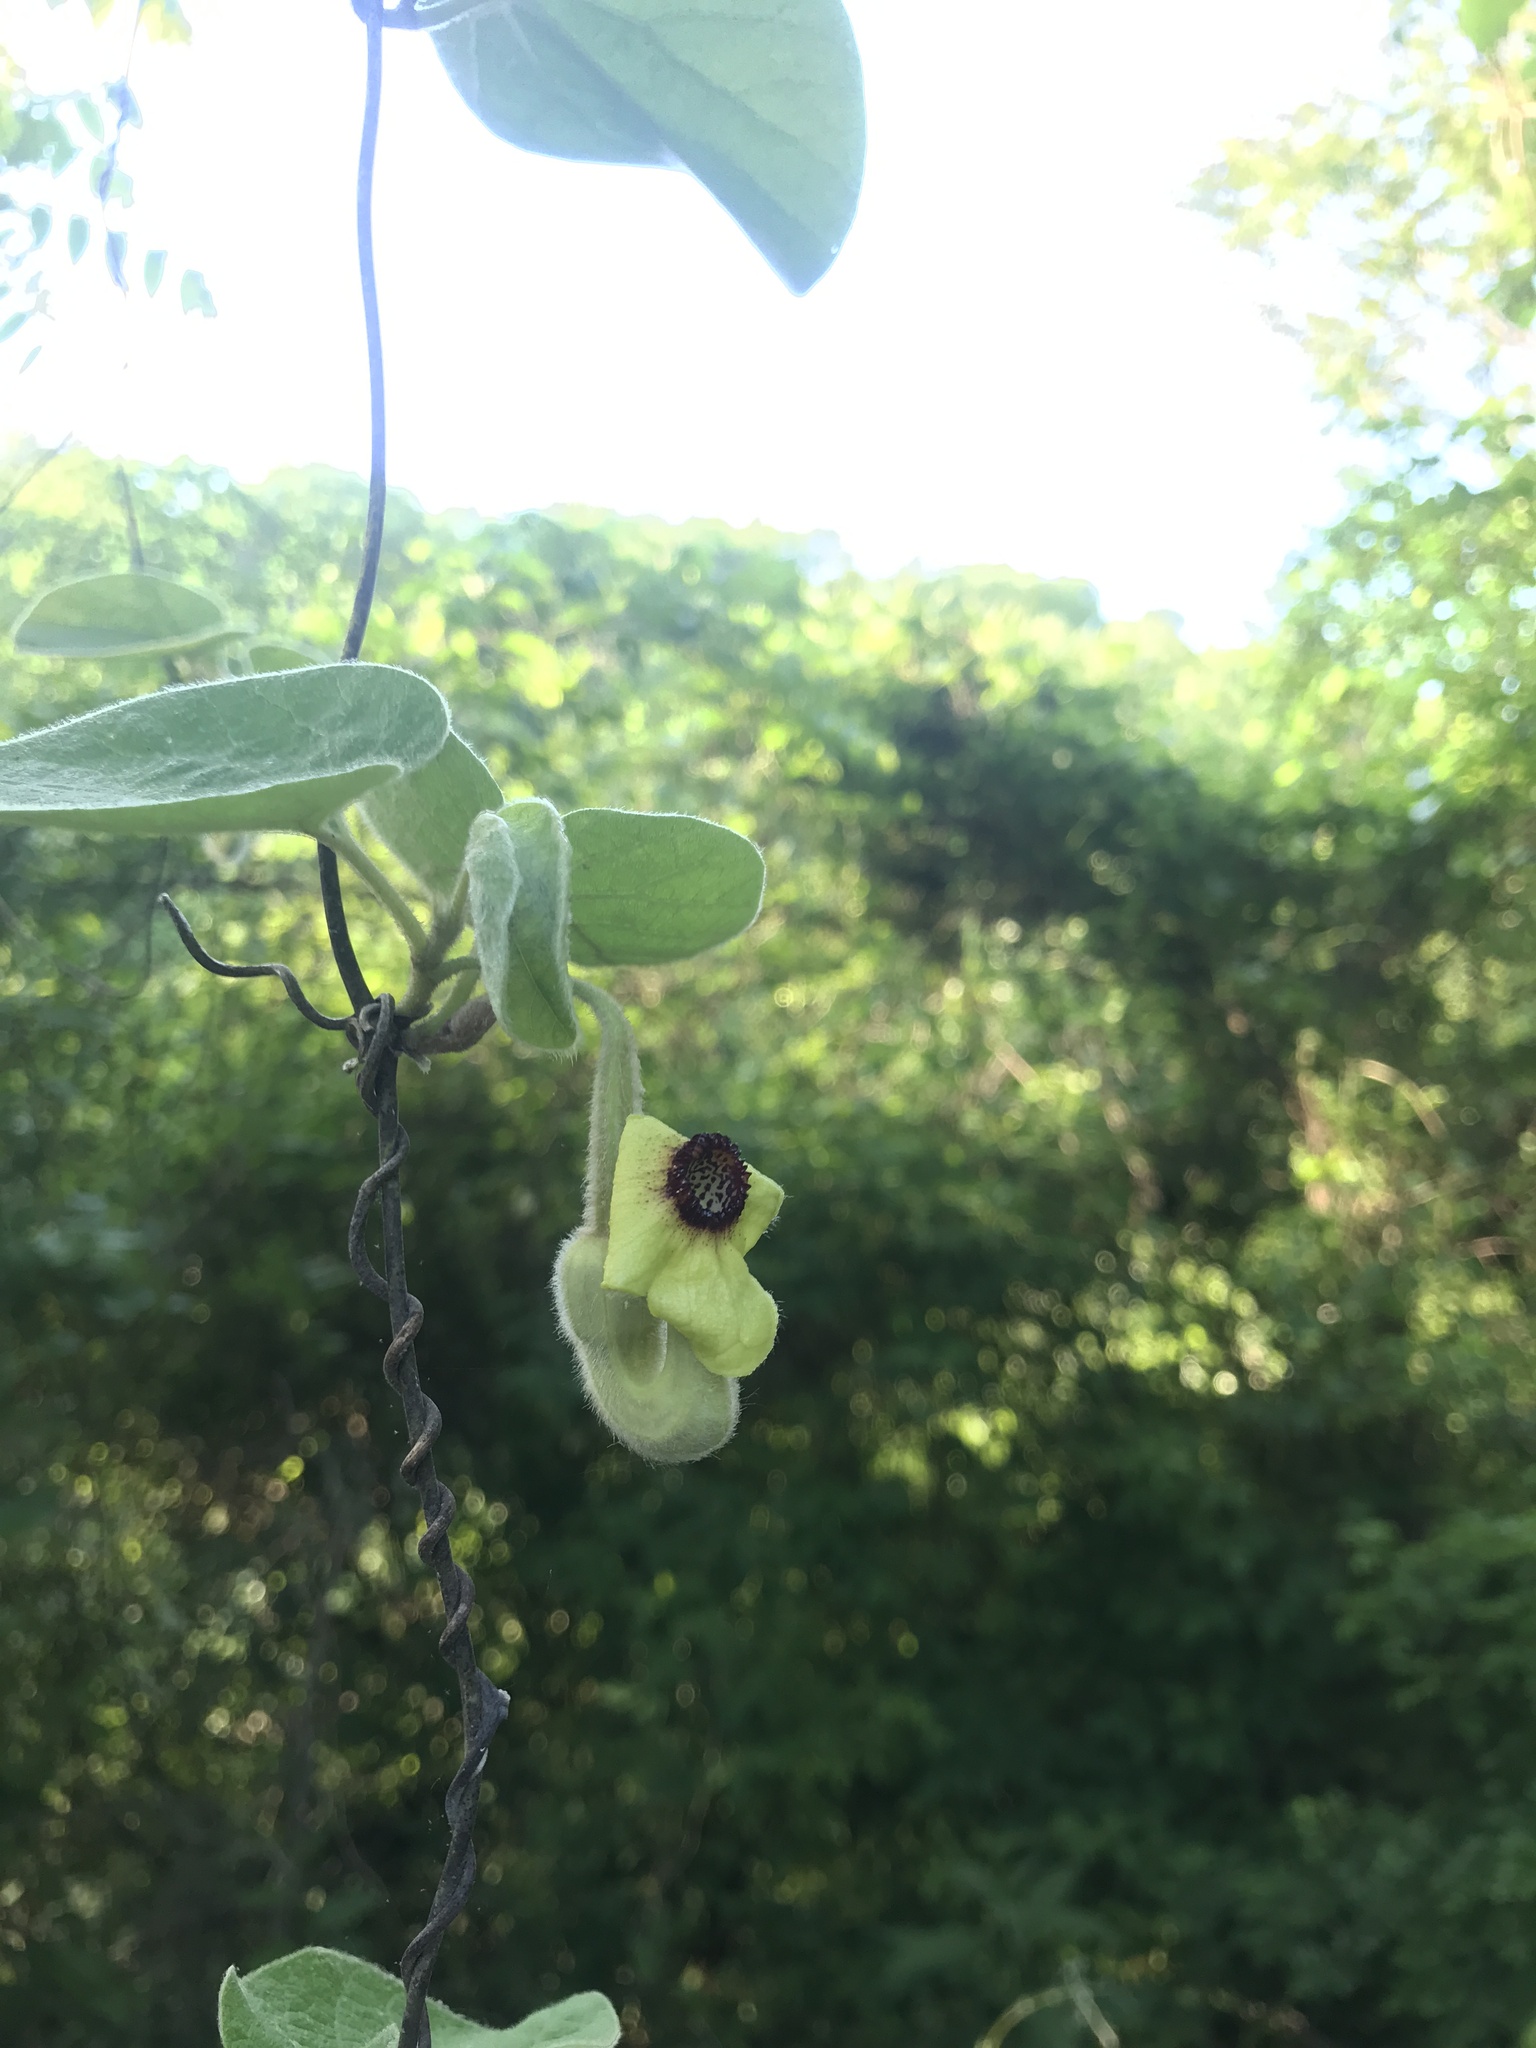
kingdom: Plantae
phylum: Tracheophyta
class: Magnoliopsida
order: Piperales
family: Aristolochiaceae
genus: Isotrema
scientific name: Isotrema tomentosum
